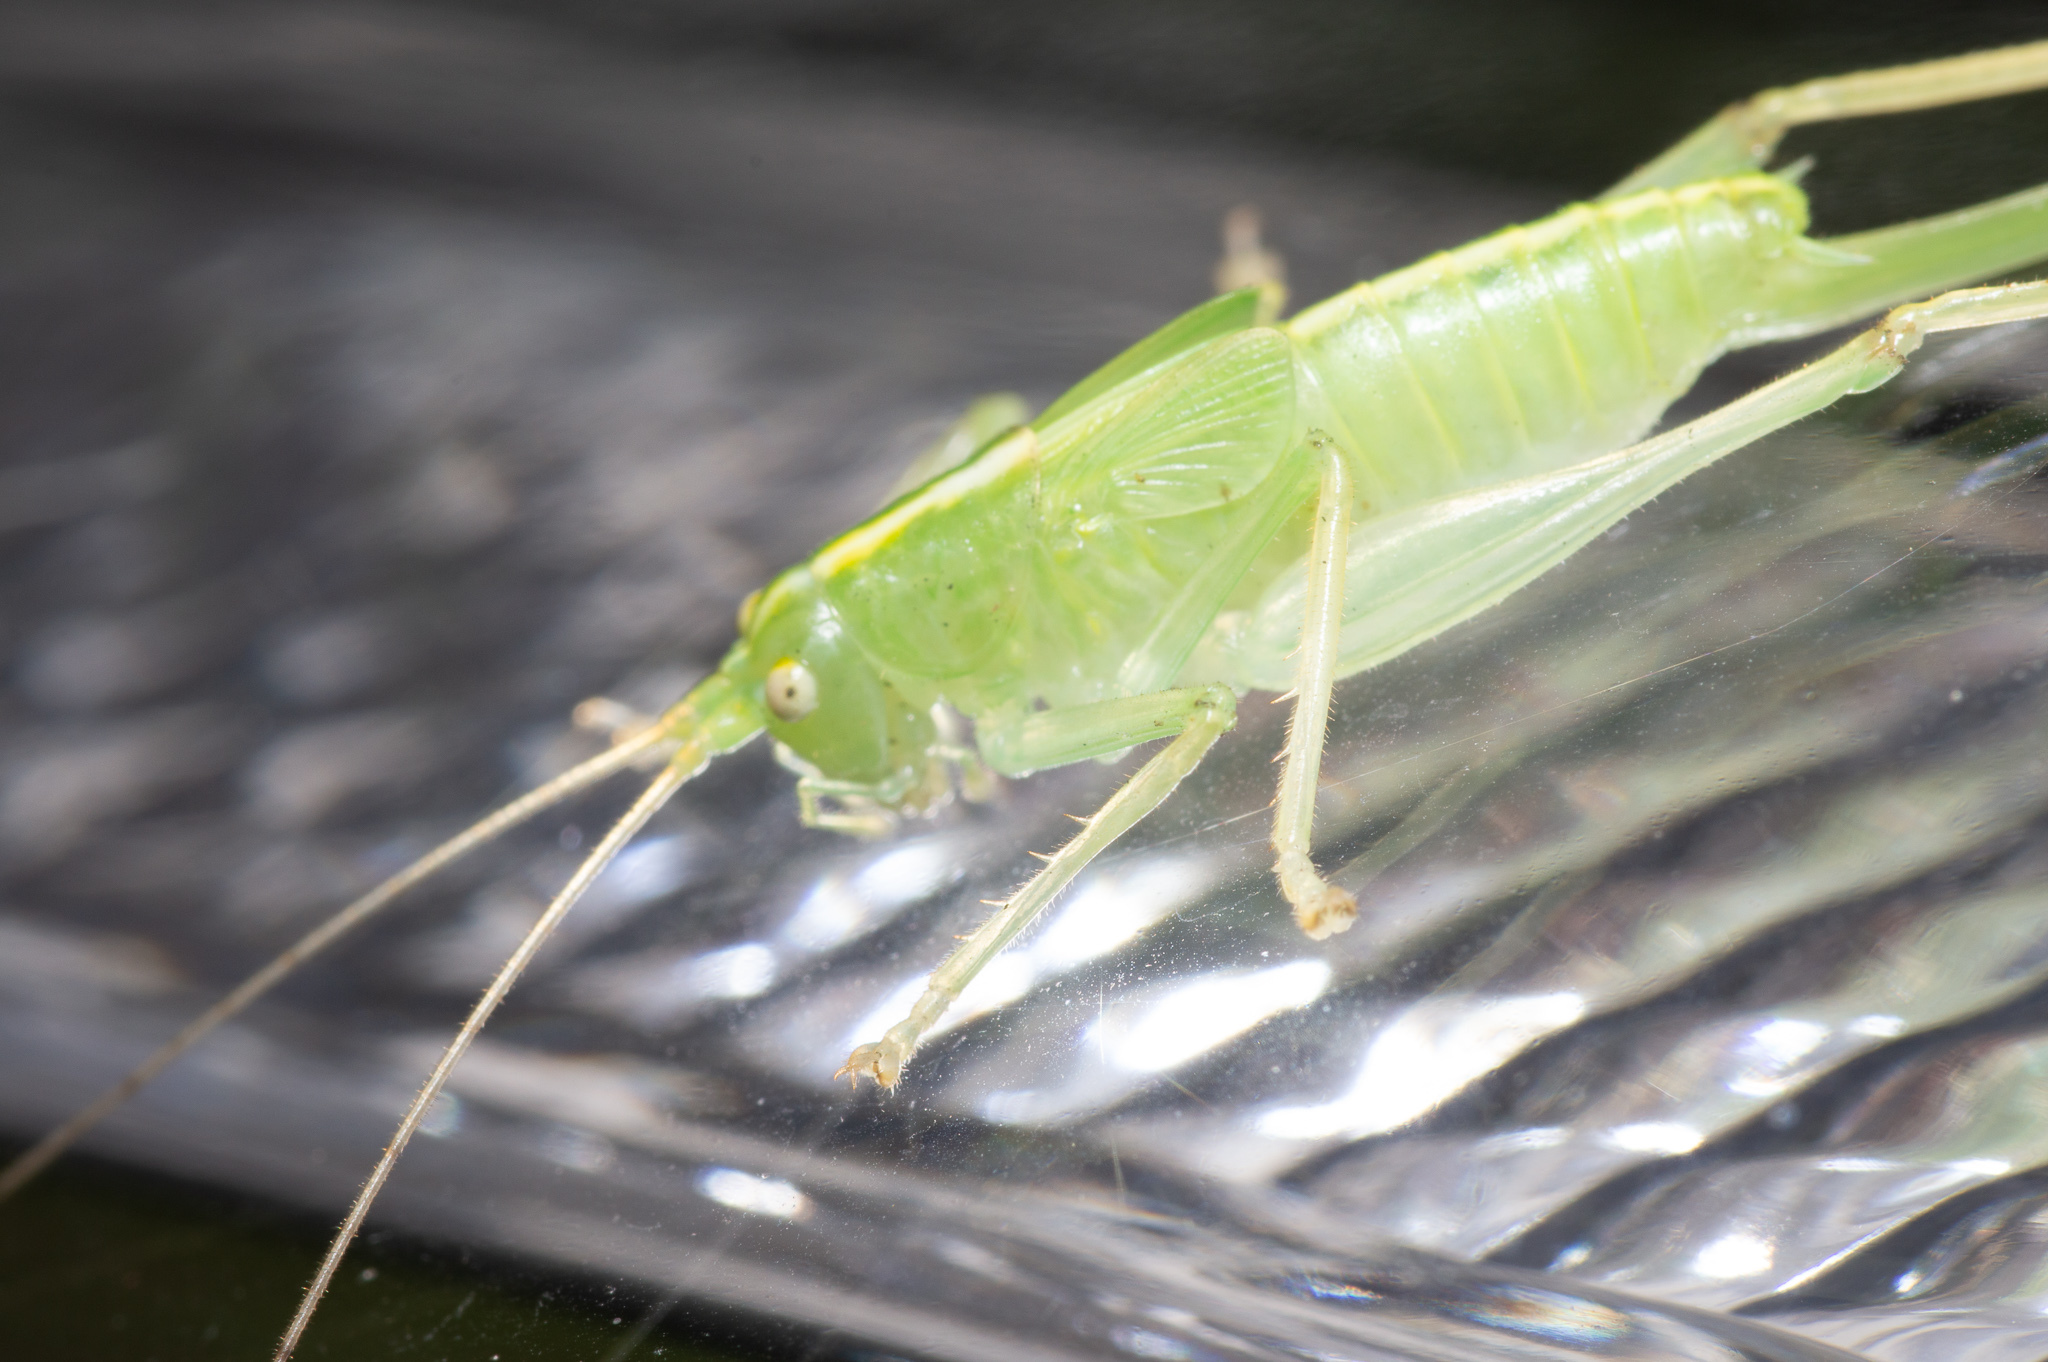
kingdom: Animalia
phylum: Arthropoda
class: Insecta
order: Orthoptera
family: Tettigoniidae
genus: Meconema
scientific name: Meconema thalassinum
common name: Oak bush-cricket
